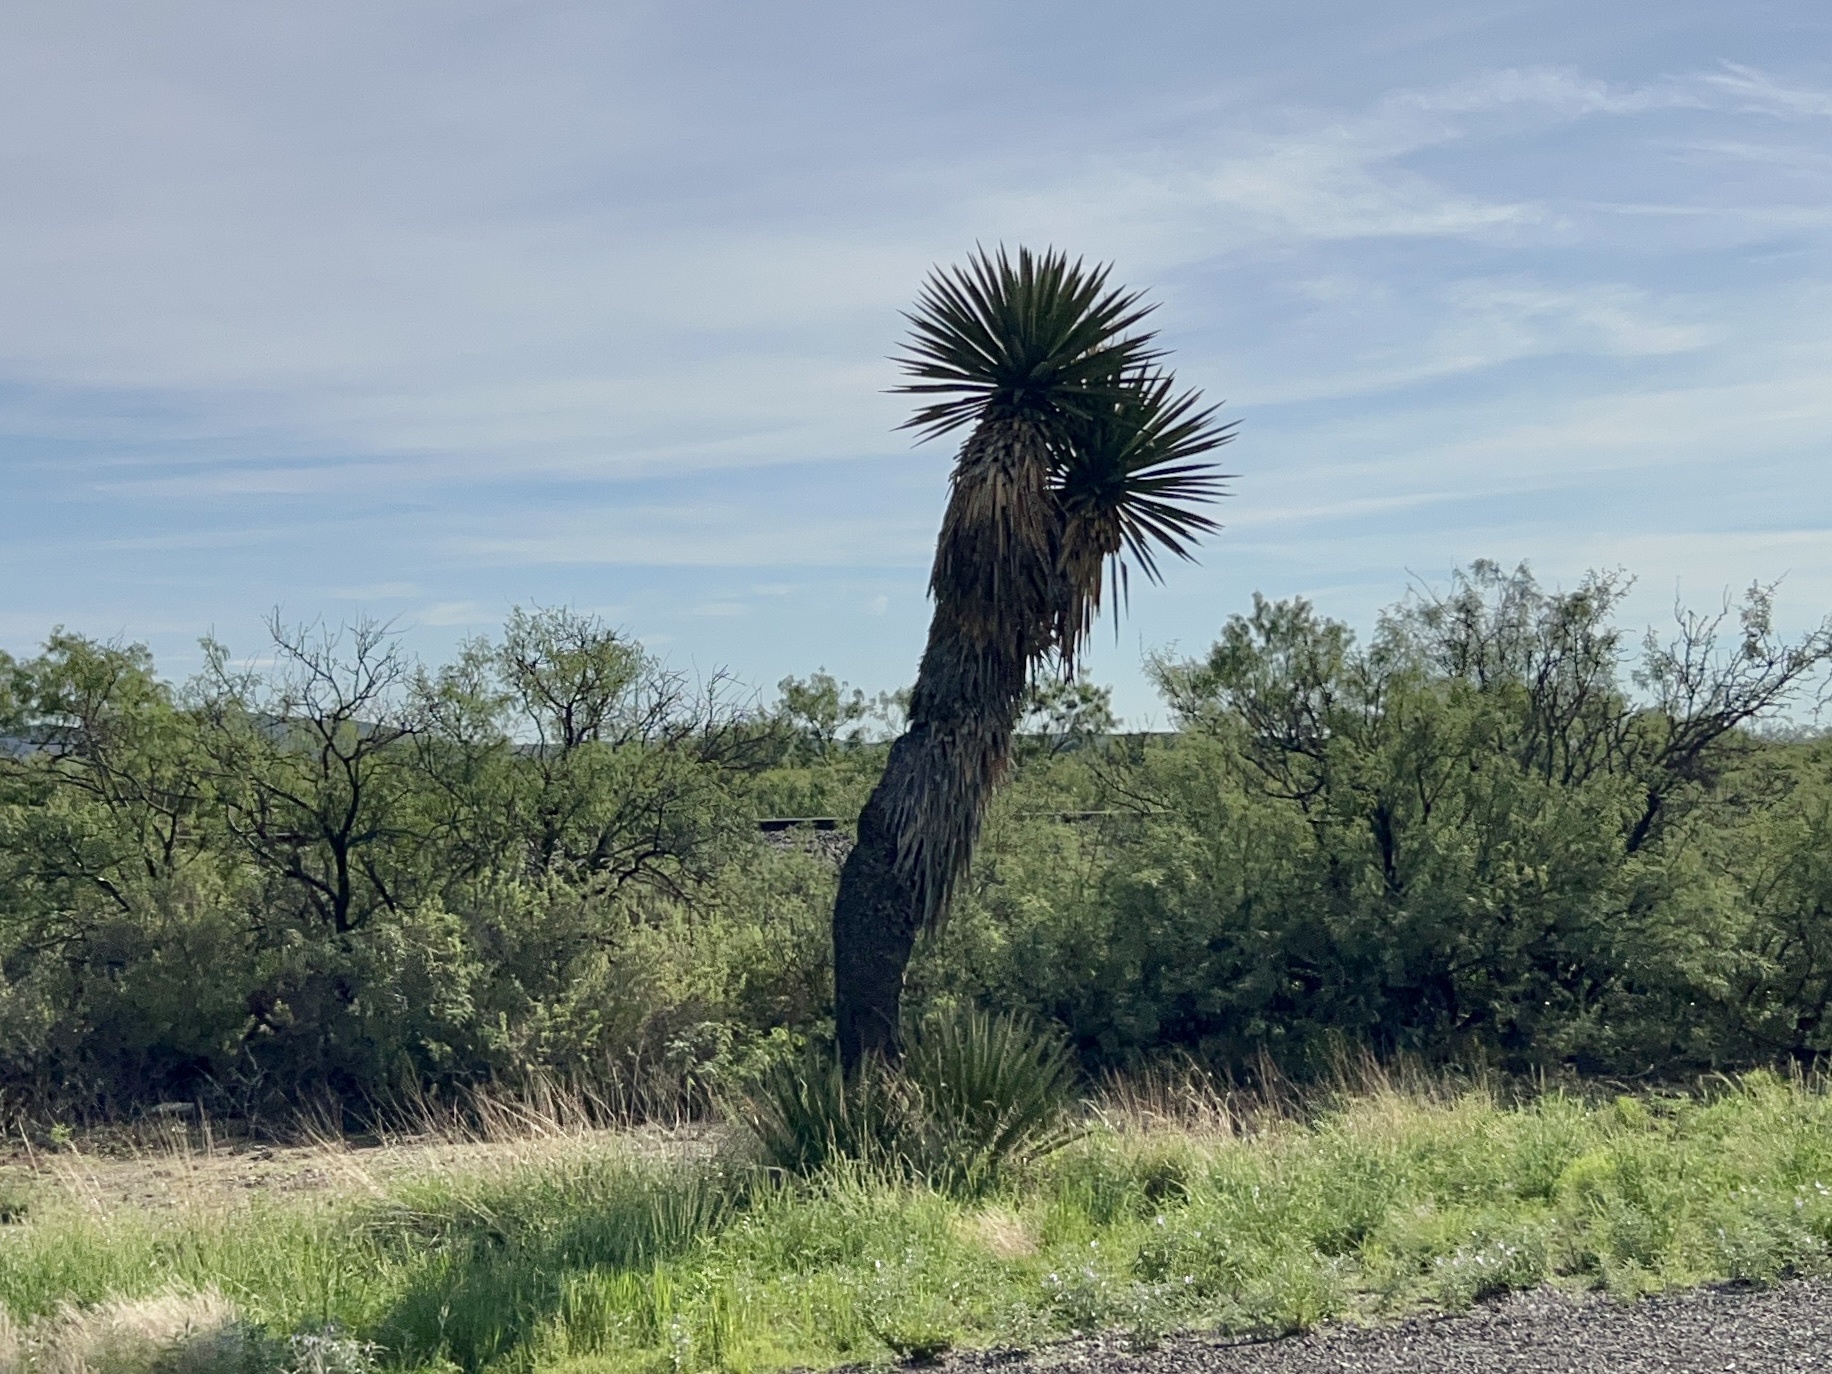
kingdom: Plantae
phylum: Tracheophyta
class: Liliopsida
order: Asparagales
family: Asparagaceae
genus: Yucca
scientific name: Yucca faxoniana
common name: Spanish dagger
